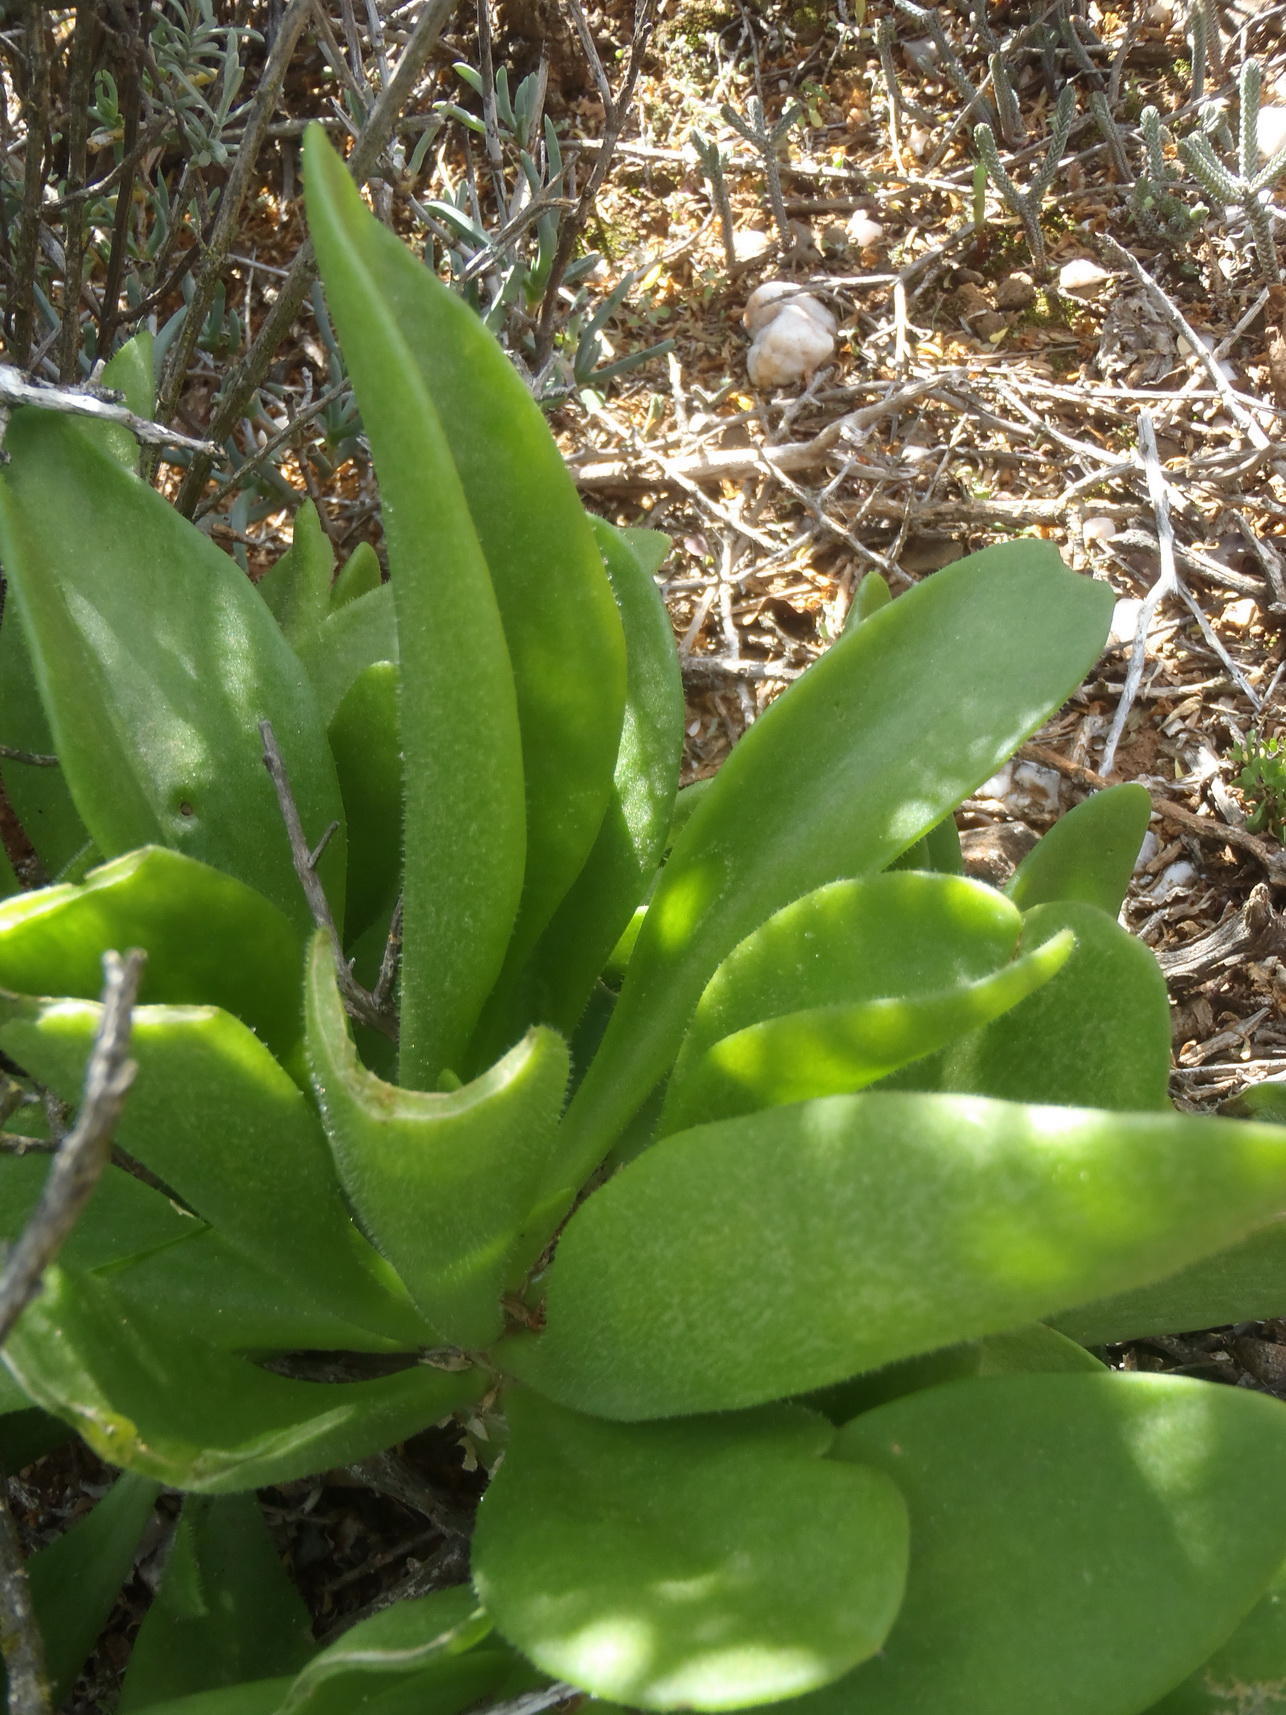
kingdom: Plantae
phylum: Tracheophyta
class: Magnoliopsida
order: Saxifragales
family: Crassulaceae
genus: Tylecodon
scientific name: Tylecodon ventricosus
